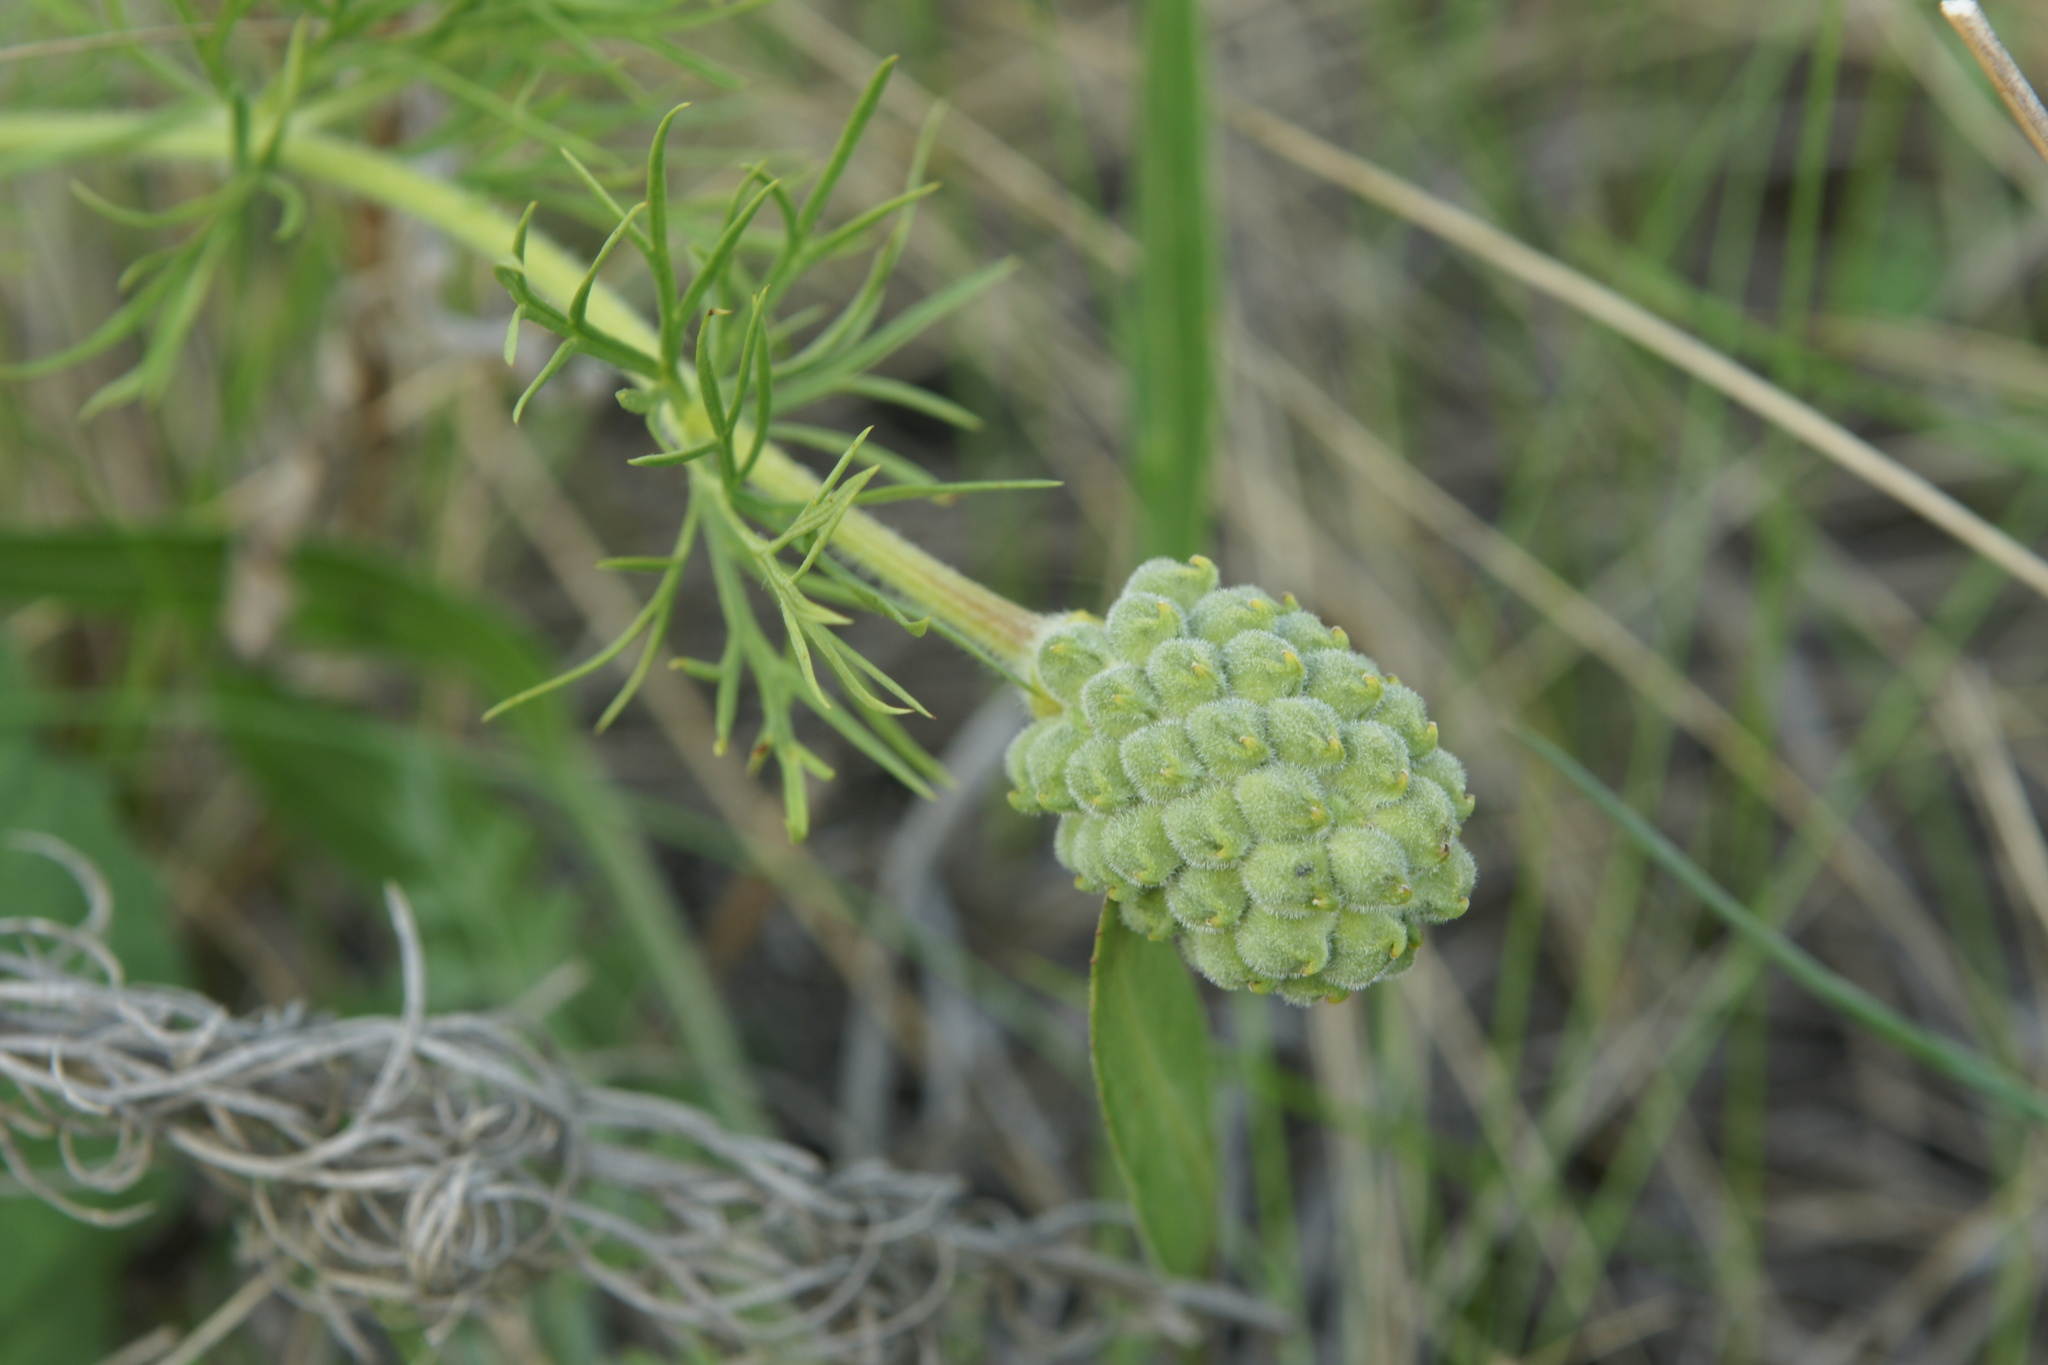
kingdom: Plantae
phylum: Tracheophyta
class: Magnoliopsida
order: Ranunculales
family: Ranunculaceae
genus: Adonis
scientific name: Adonis vernalis
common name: Yellow pheasants-eye
